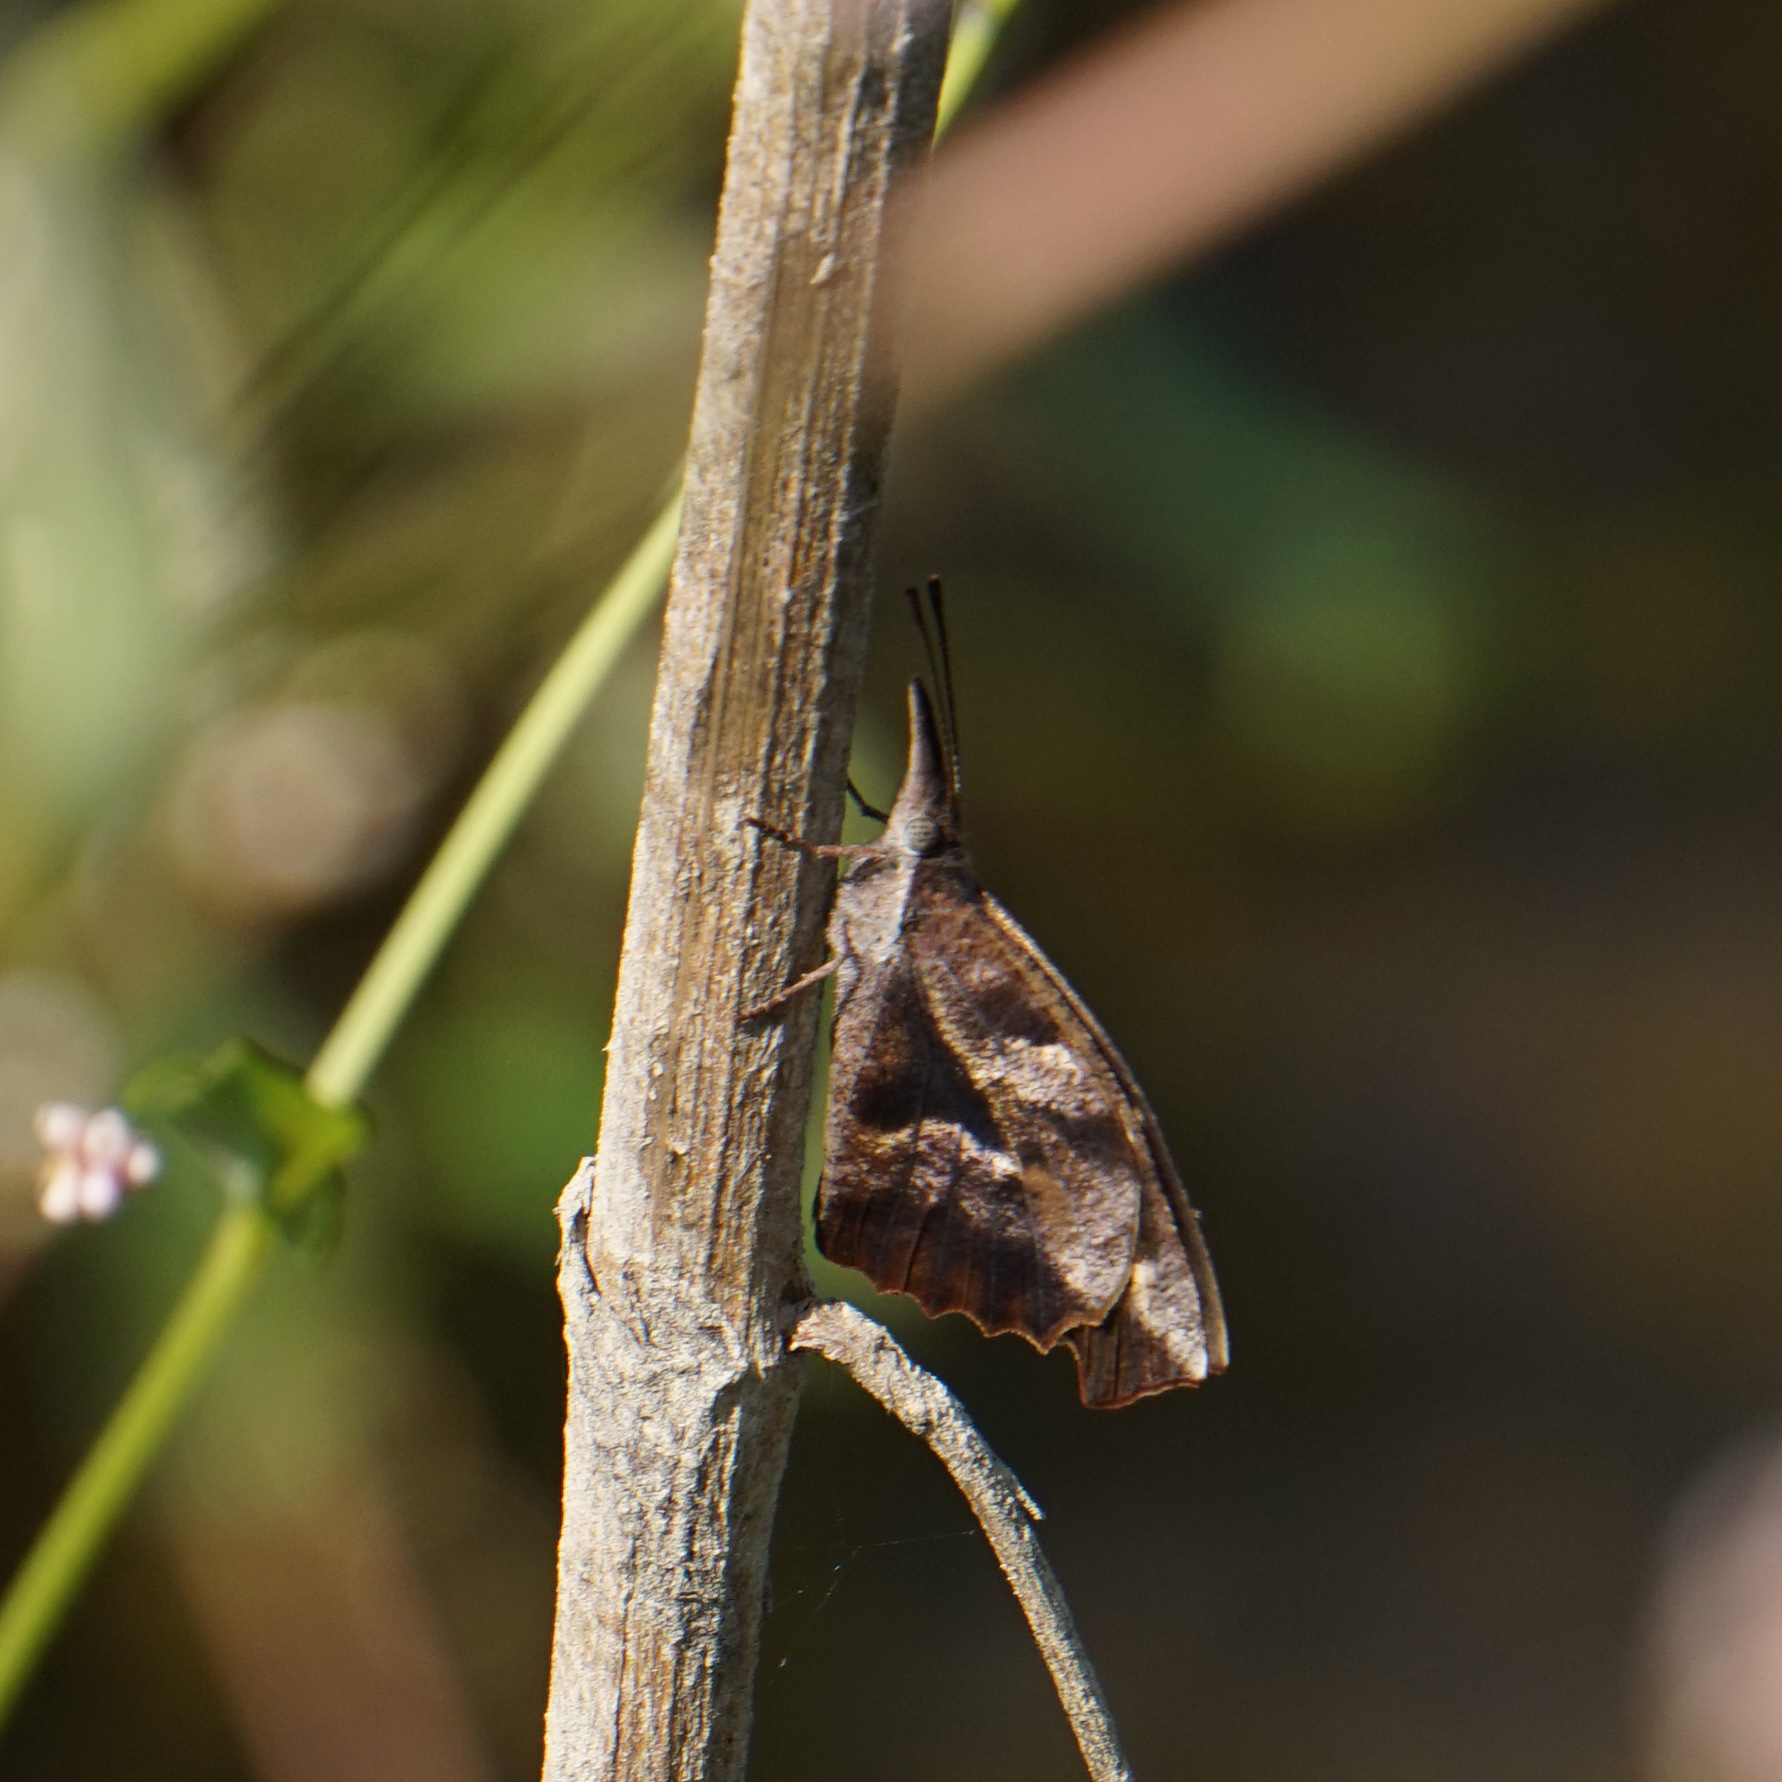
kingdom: Animalia
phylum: Arthropoda
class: Insecta
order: Lepidoptera
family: Nymphalidae
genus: Libytheana
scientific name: Libytheana carinenta
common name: American snout
